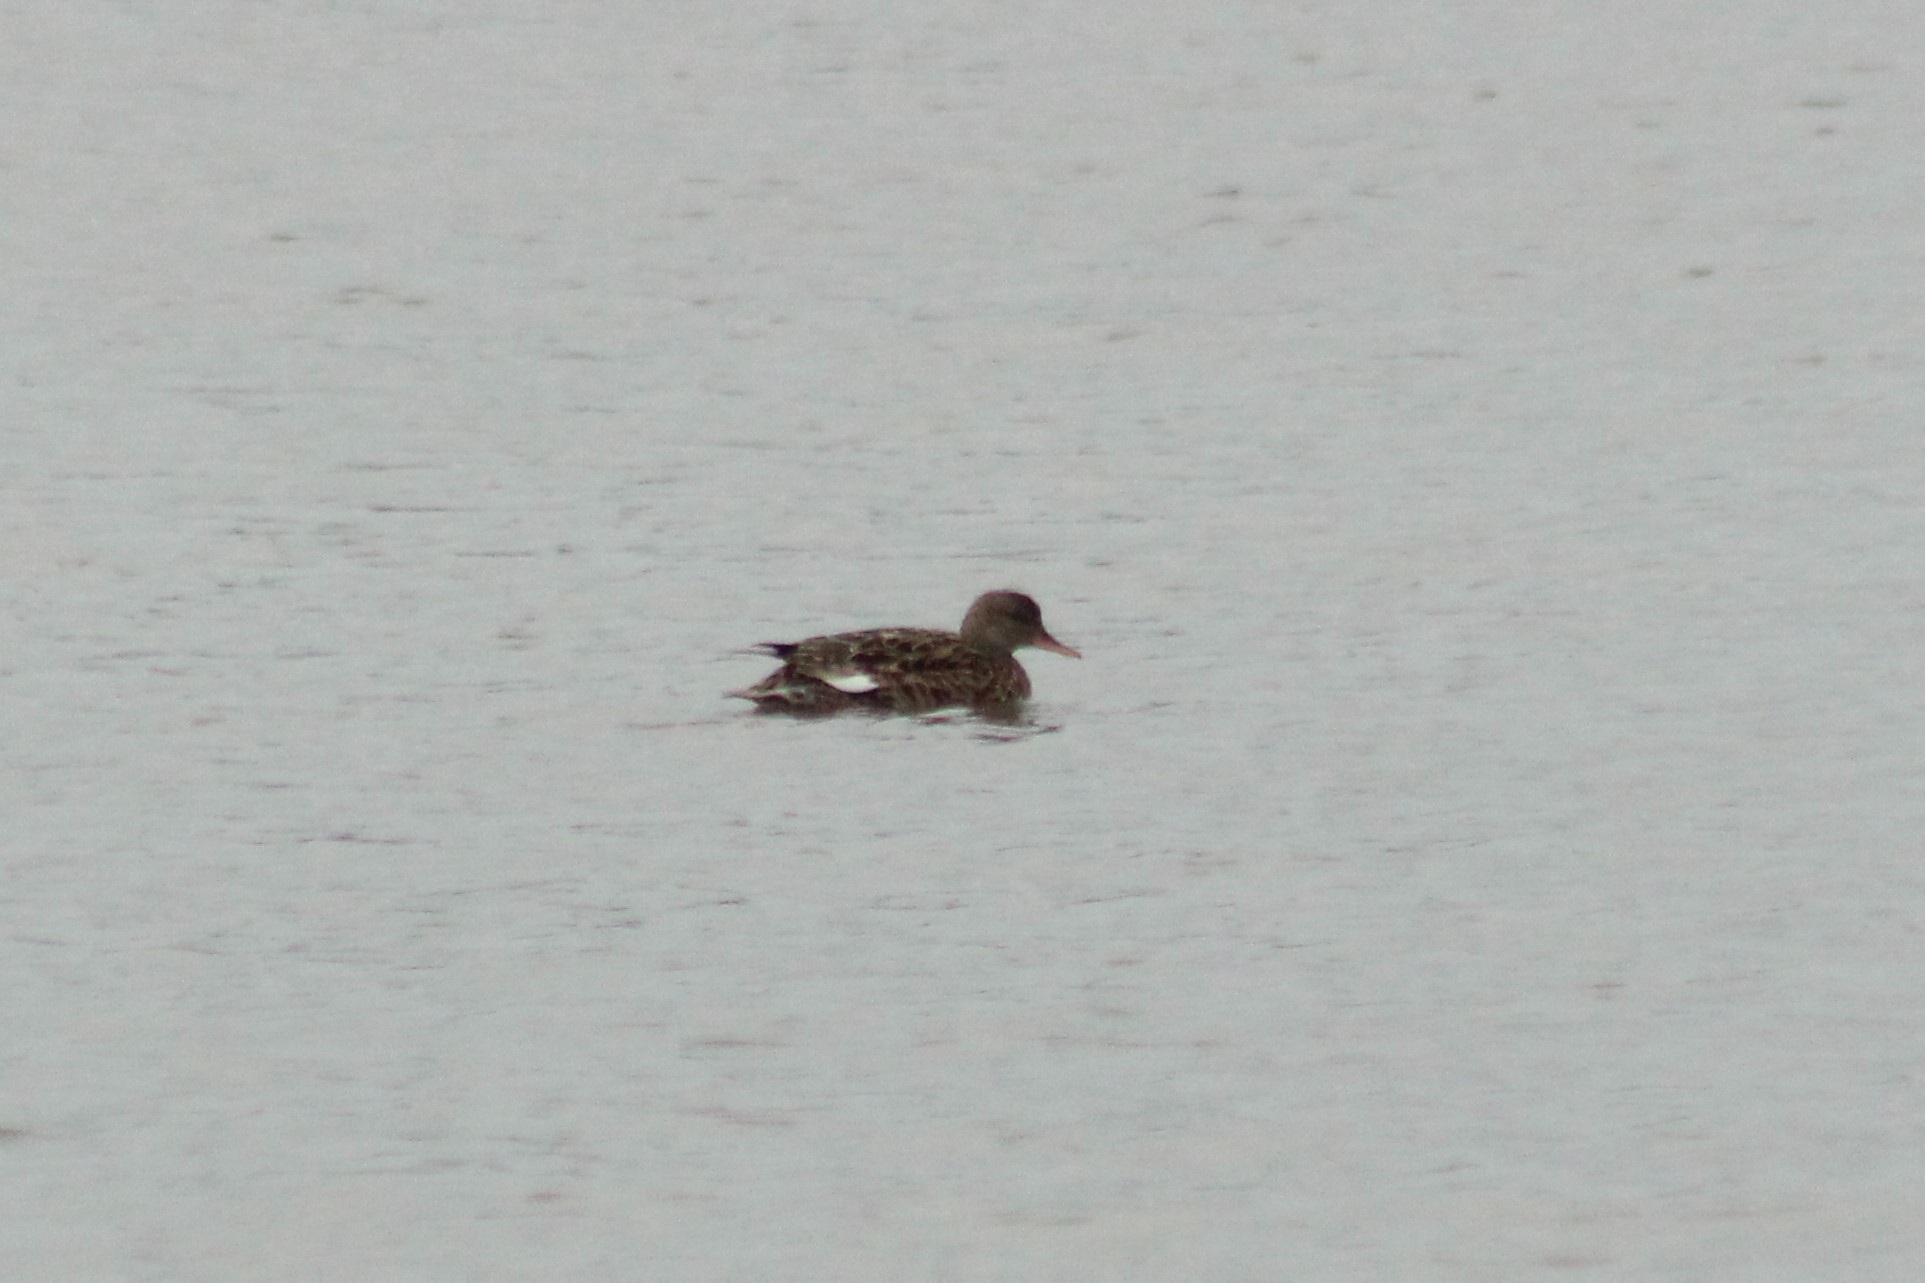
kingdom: Animalia
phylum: Chordata
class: Aves
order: Anseriformes
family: Anatidae
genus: Mareca
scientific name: Mareca strepera
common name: Gadwall
